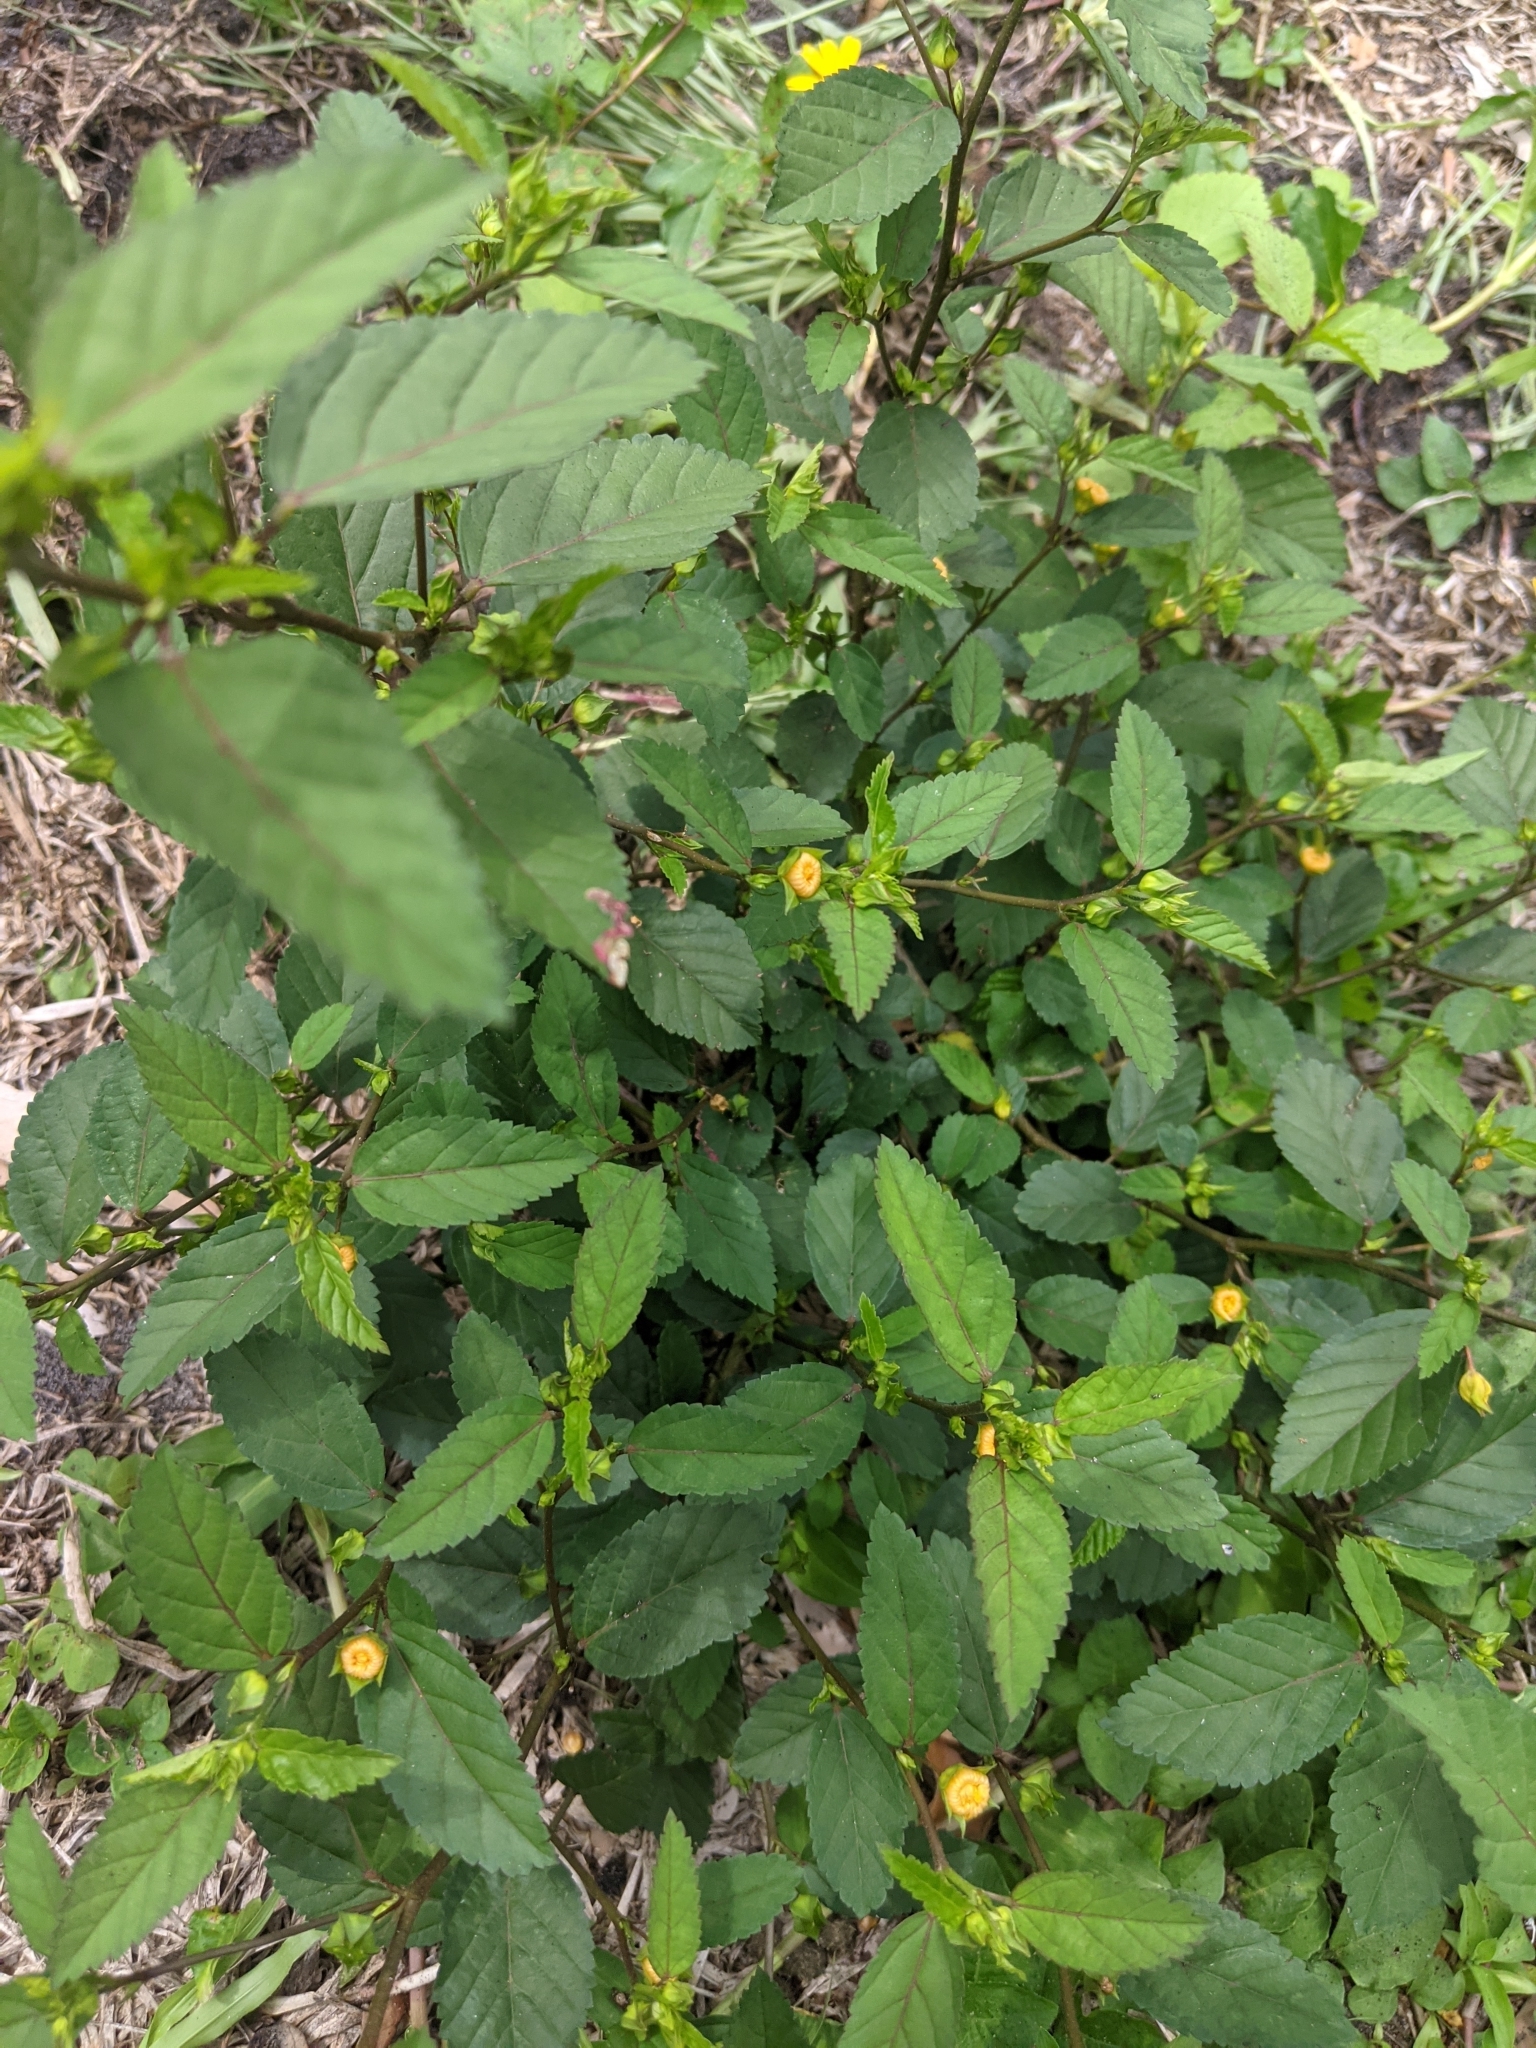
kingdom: Plantae
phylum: Tracheophyta
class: Magnoliopsida
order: Malvales
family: Malvaceae
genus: Sida
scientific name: Sida ulmifolia
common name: Broom weed
